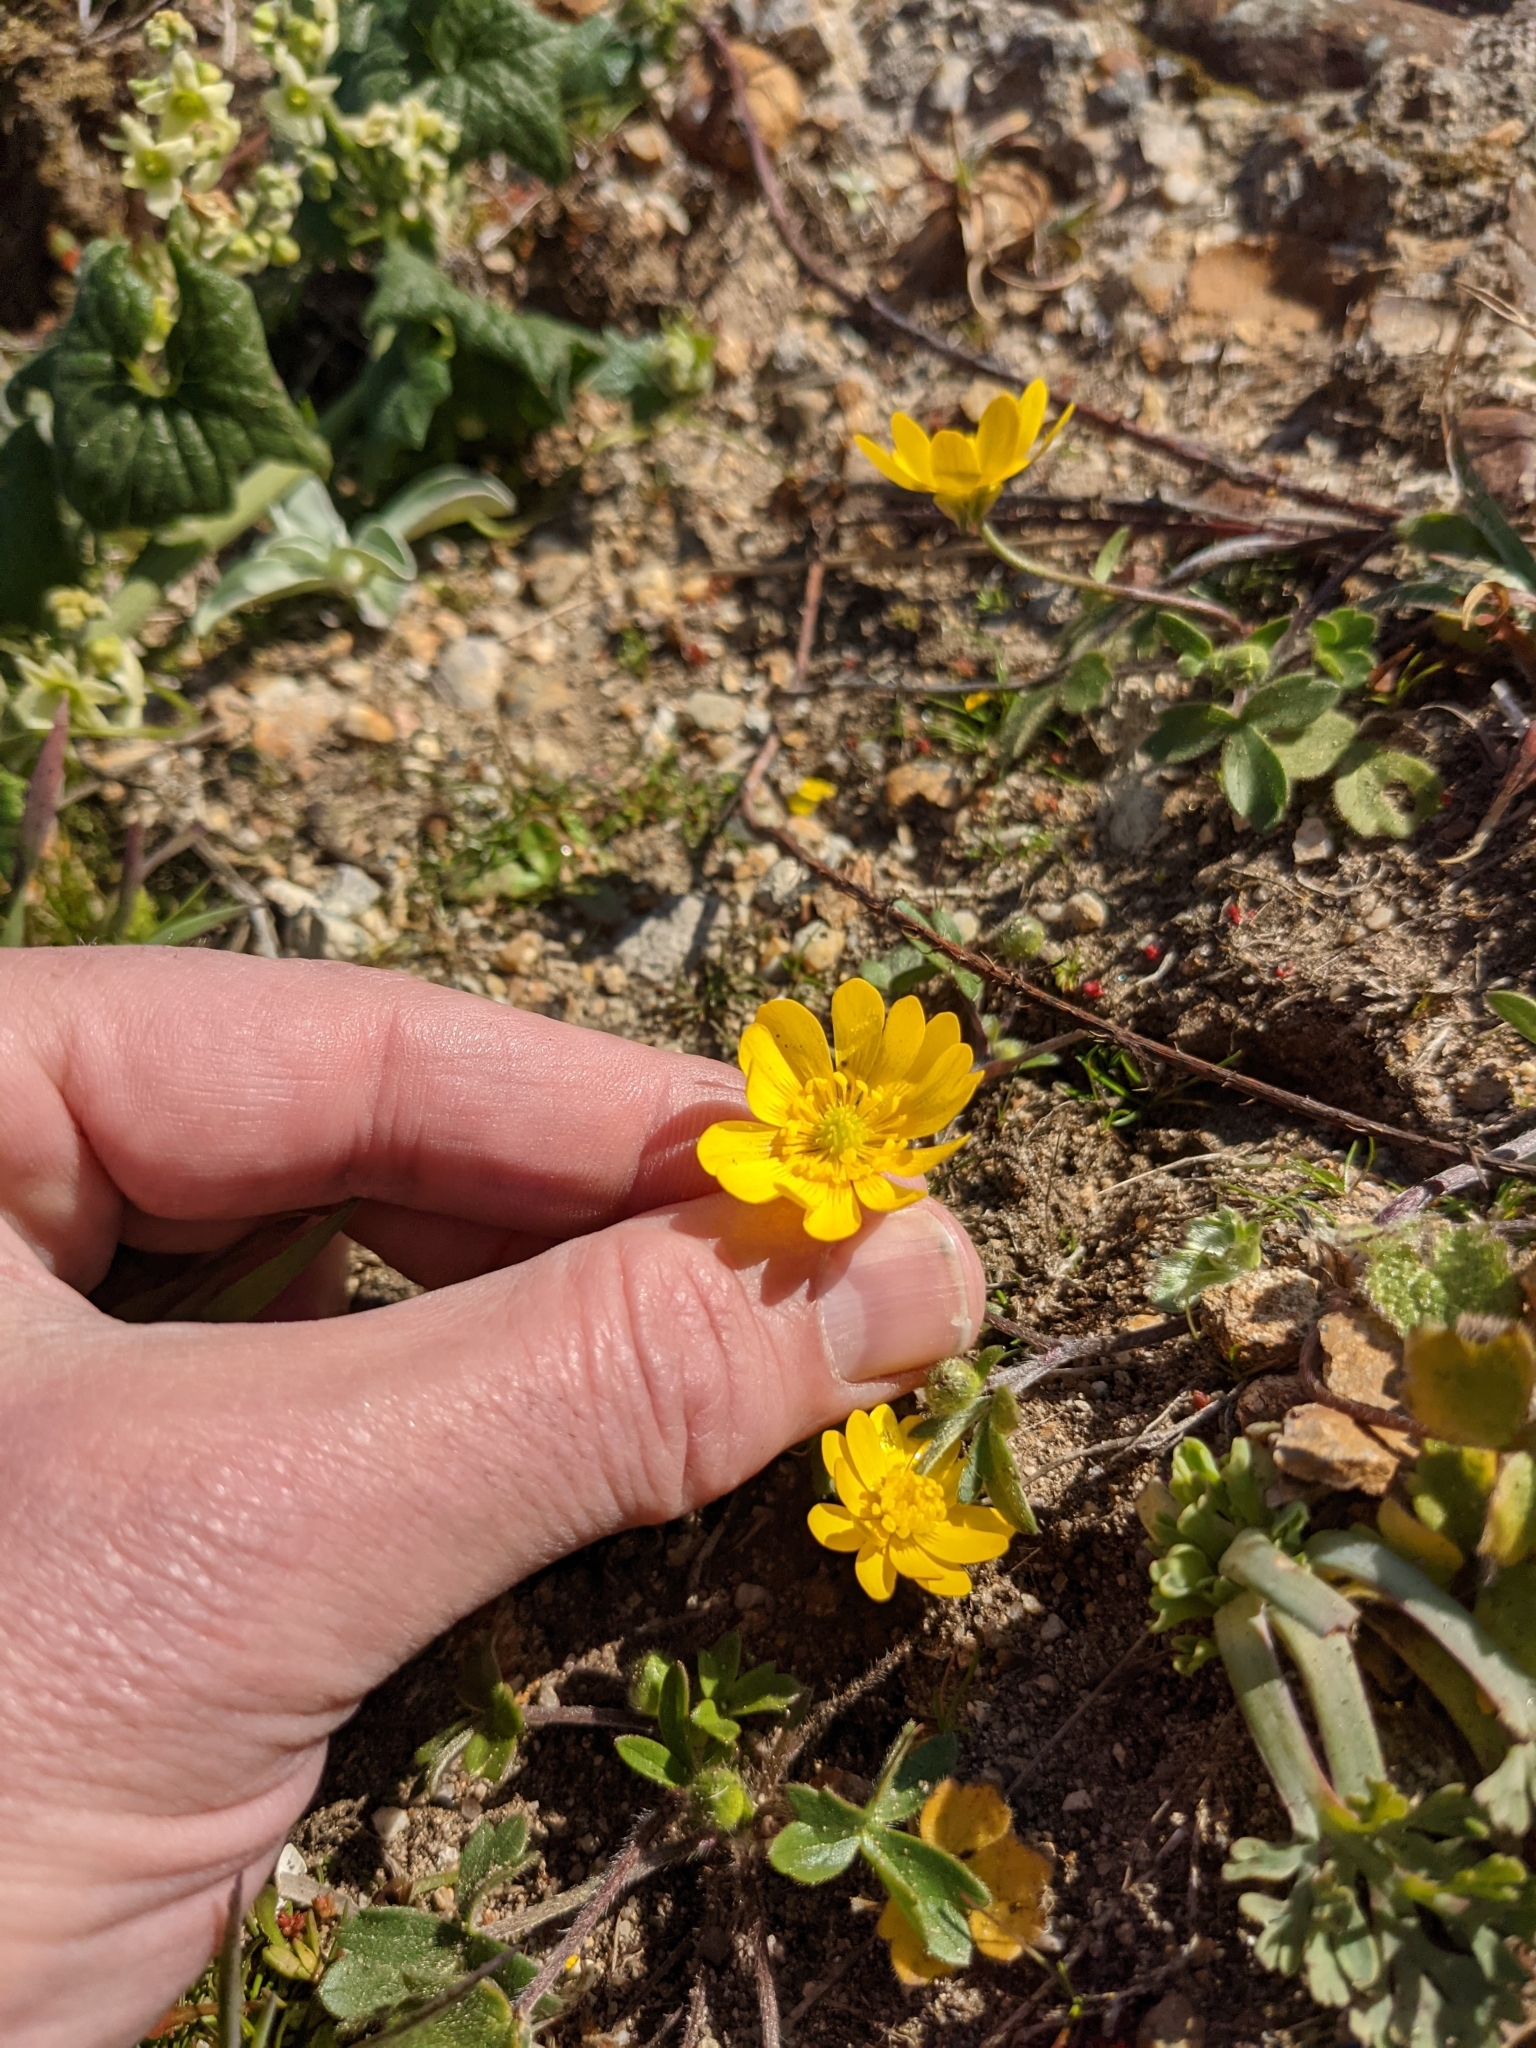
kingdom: Plantae
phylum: Tracheophyta
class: Magnoliopsida
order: Ranunculales
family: Ranunculaceae
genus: Ranunculus
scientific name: Ranunculus californicus
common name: California buttercup
